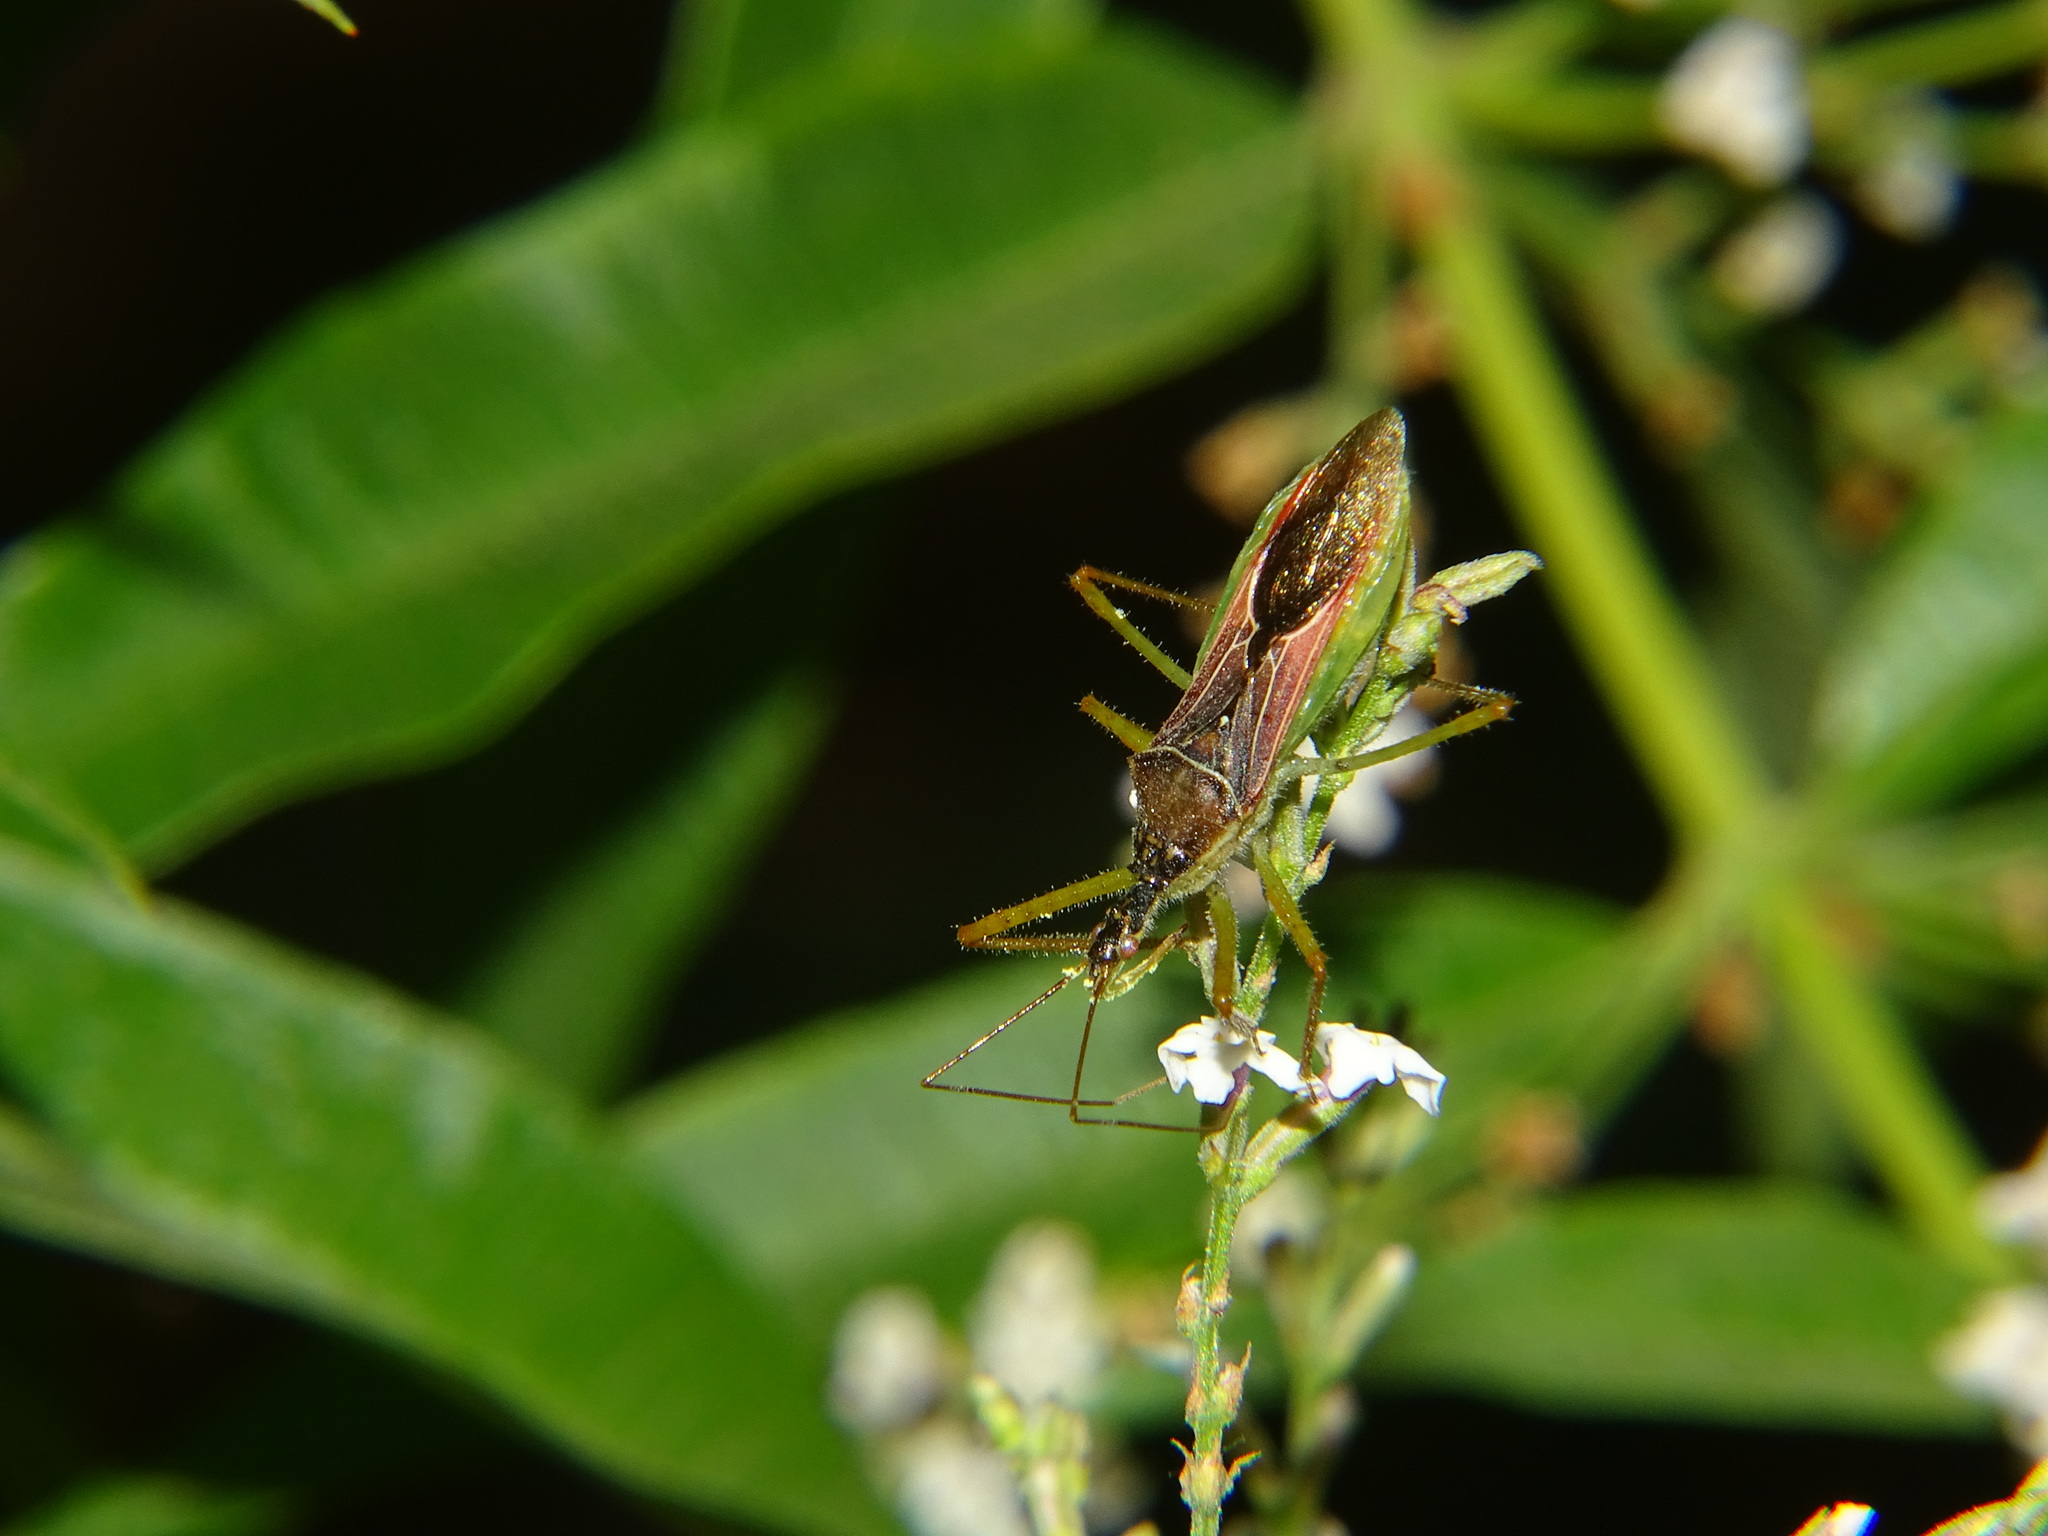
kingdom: Animalia
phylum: Arthropoda
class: Insecta
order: Hemiptera
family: Reduviidae
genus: Zelus
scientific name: Zelus renardii
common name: Assassin bug
